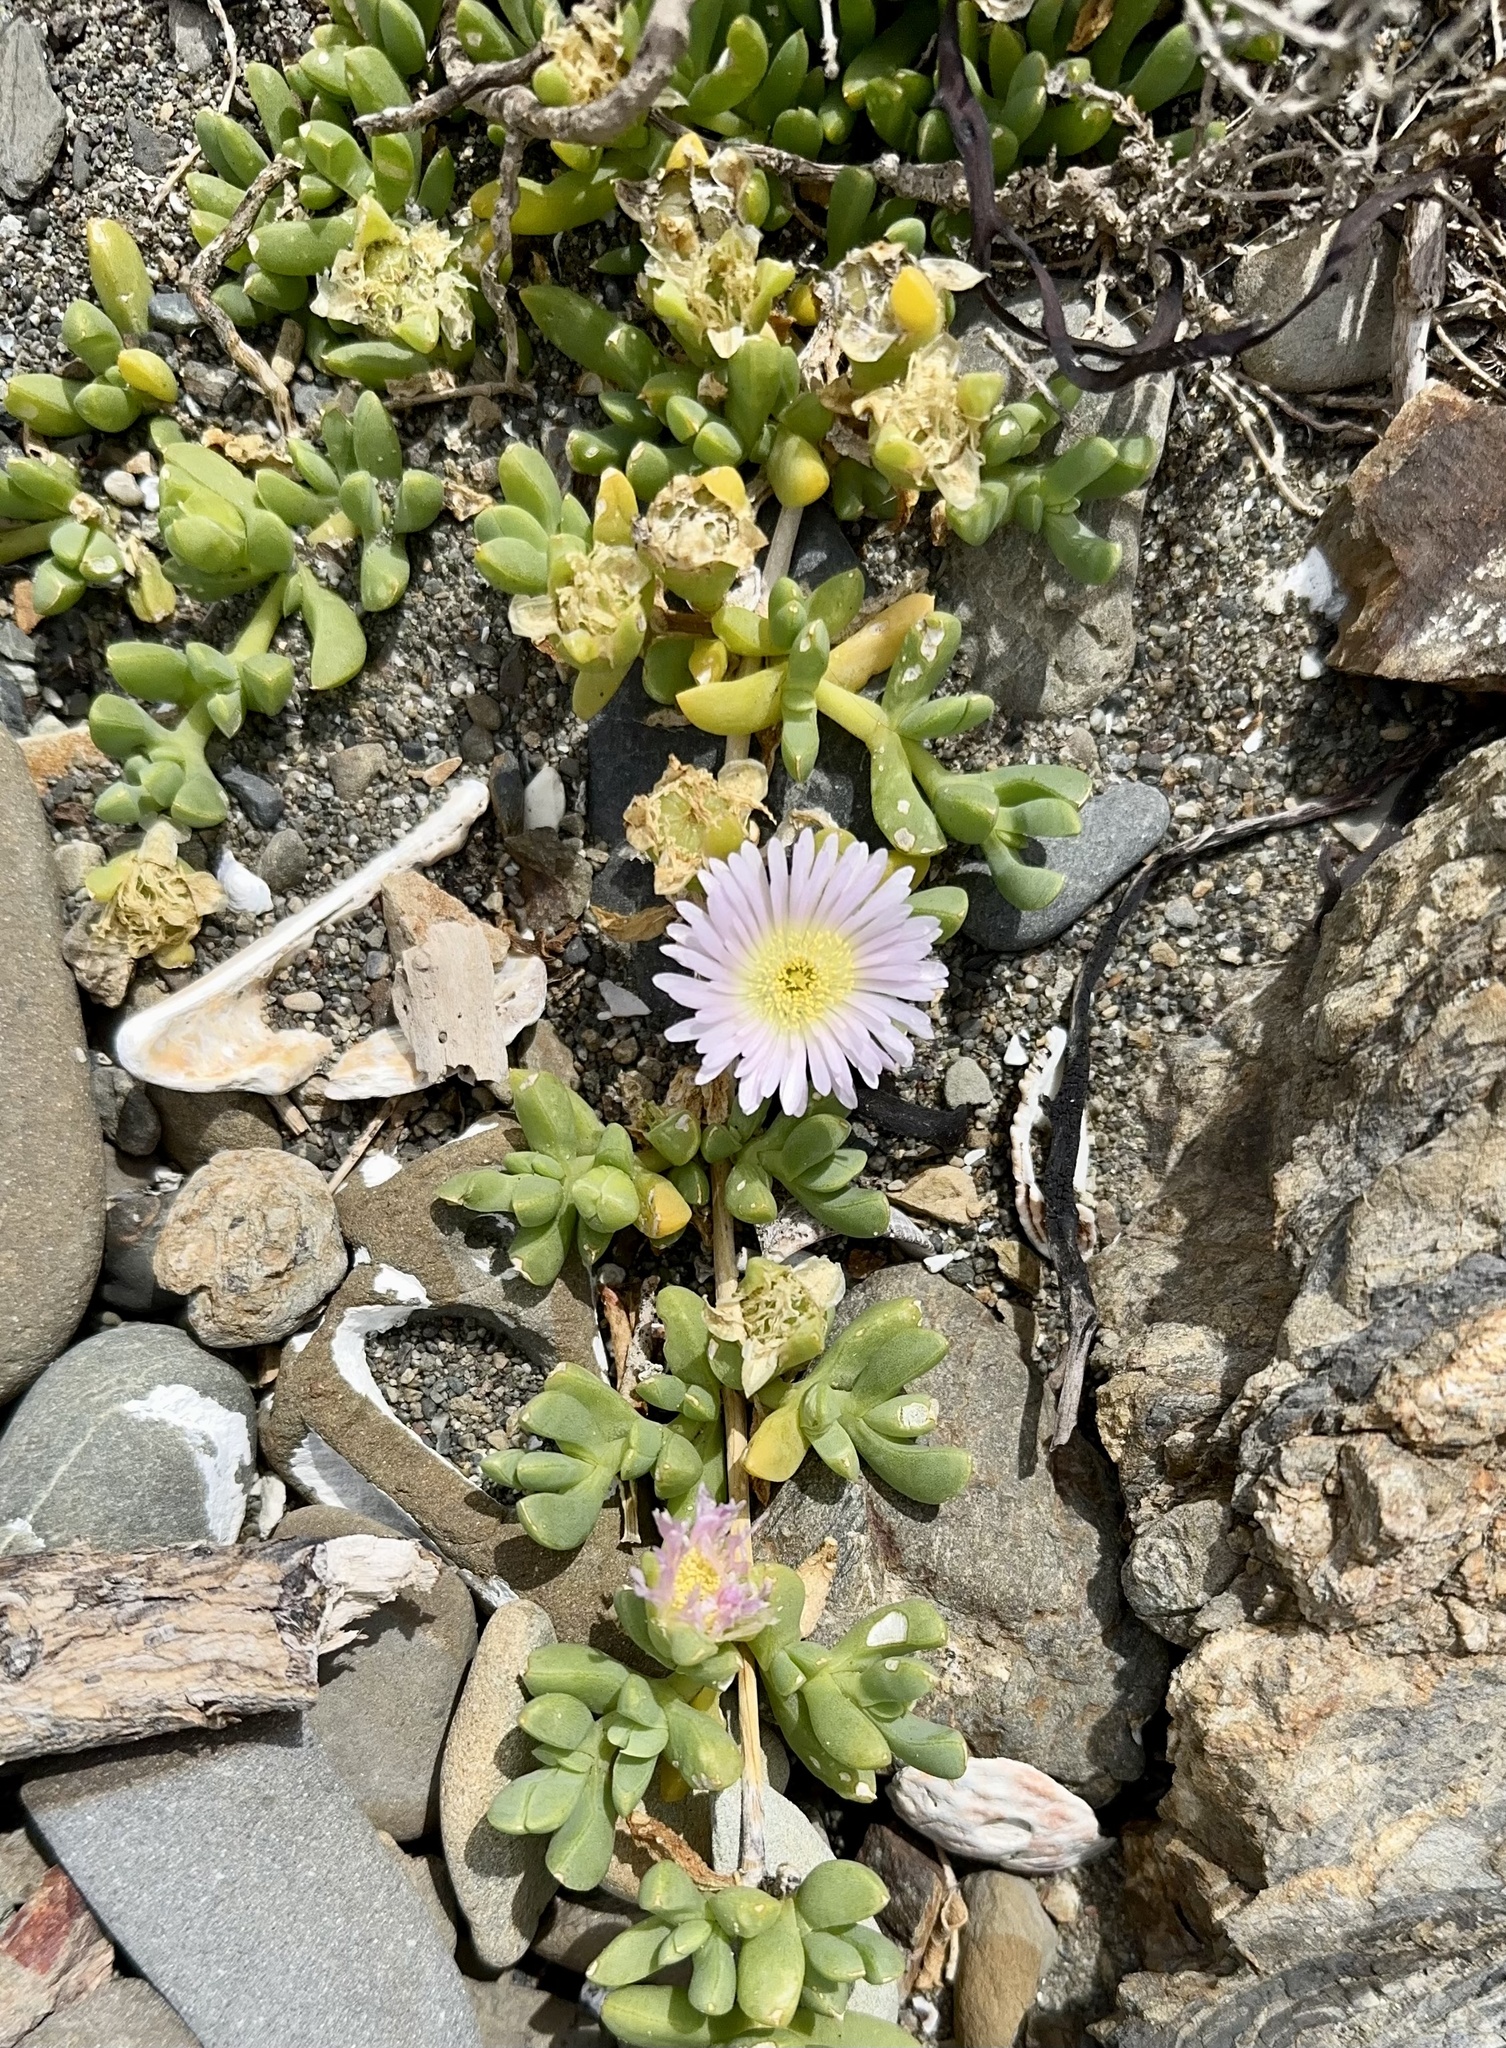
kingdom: Plantae
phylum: Tracheophyta
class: Magnoliopsida
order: Caryophyllales
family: Aizoaceae
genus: Disphyma
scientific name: Disphyma australe
